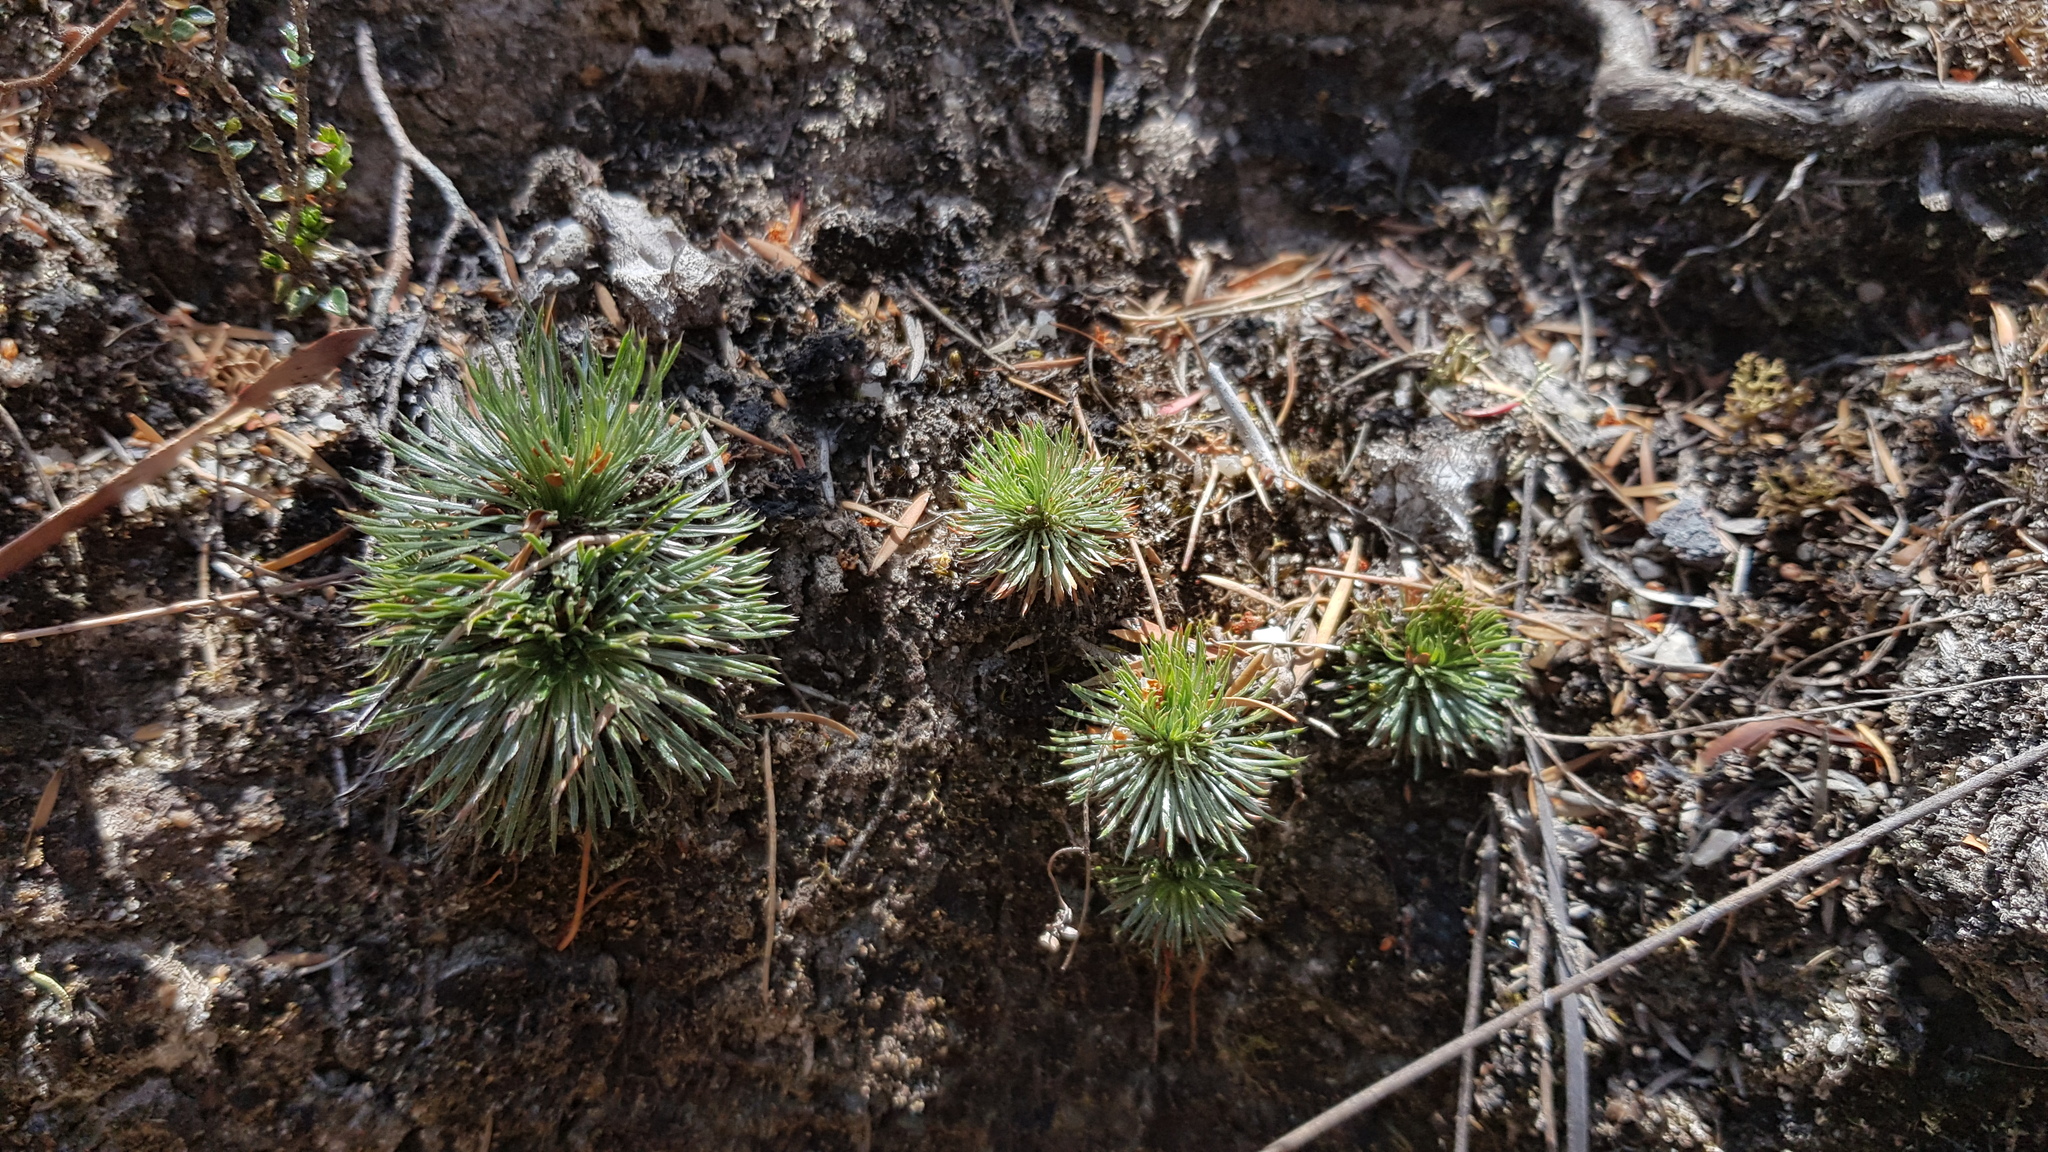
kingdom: Plantae
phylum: Tracheophyta
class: Magnoliopsida
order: Asterales
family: Stylidiaceae
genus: Stylidium
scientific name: Stylidium lineare
